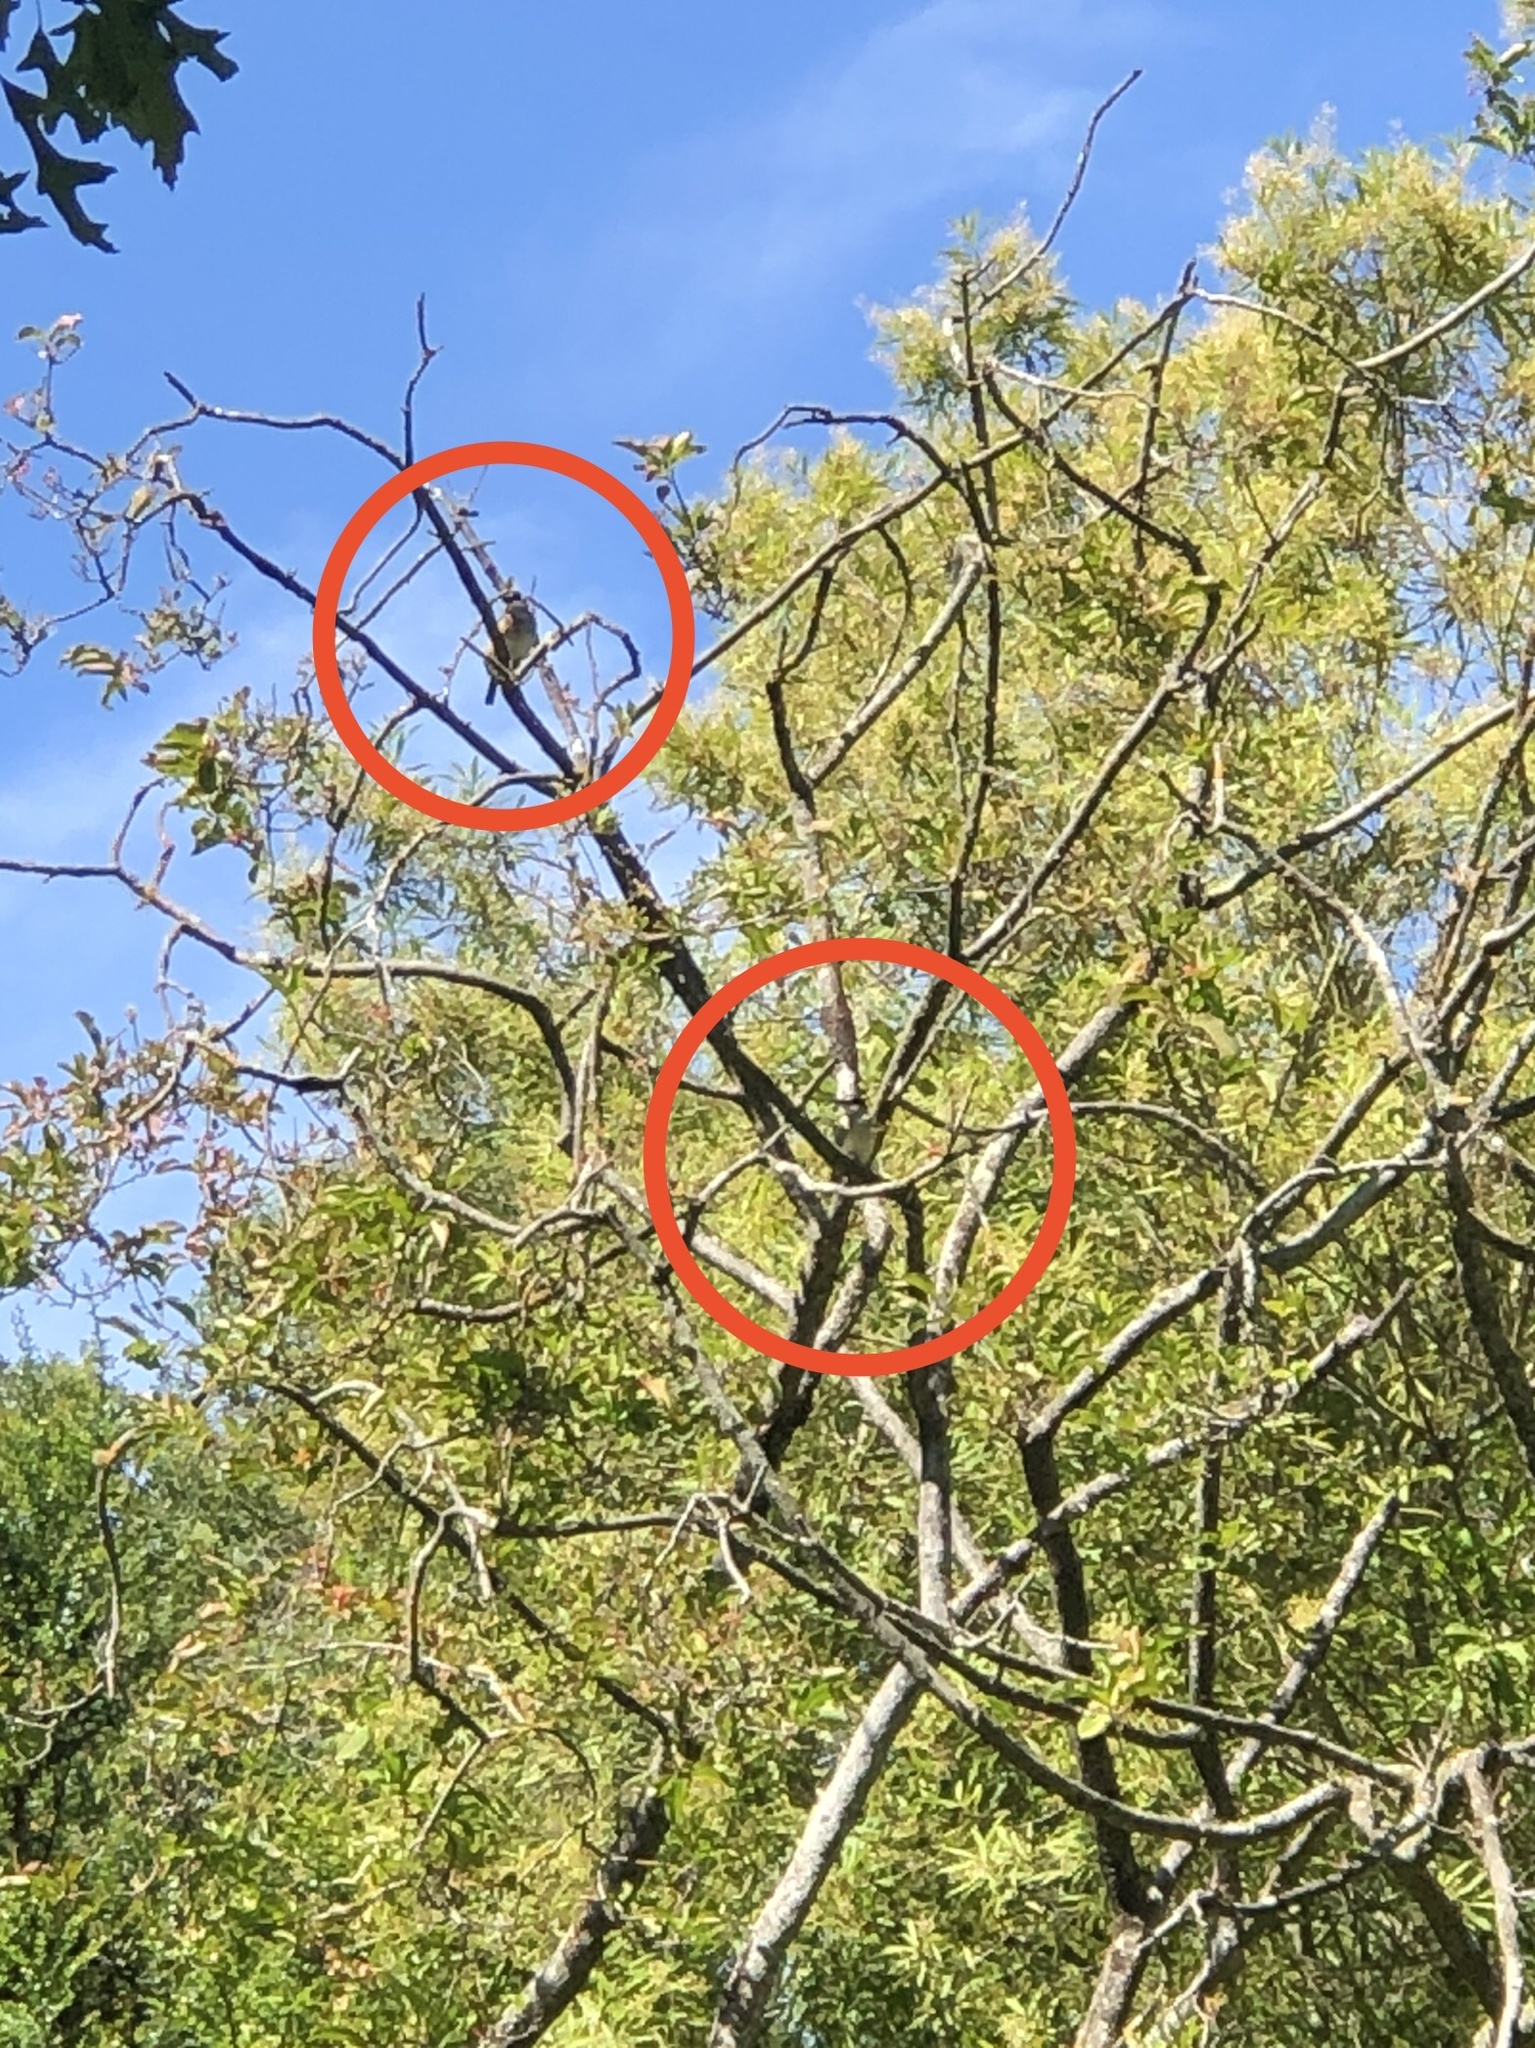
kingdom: Animalia
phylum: Chordata
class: Aves
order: Coraciiformes
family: Alcedinidae
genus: Todiramphus
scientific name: Todiramphus sanctus
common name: Sacred kingfisher
